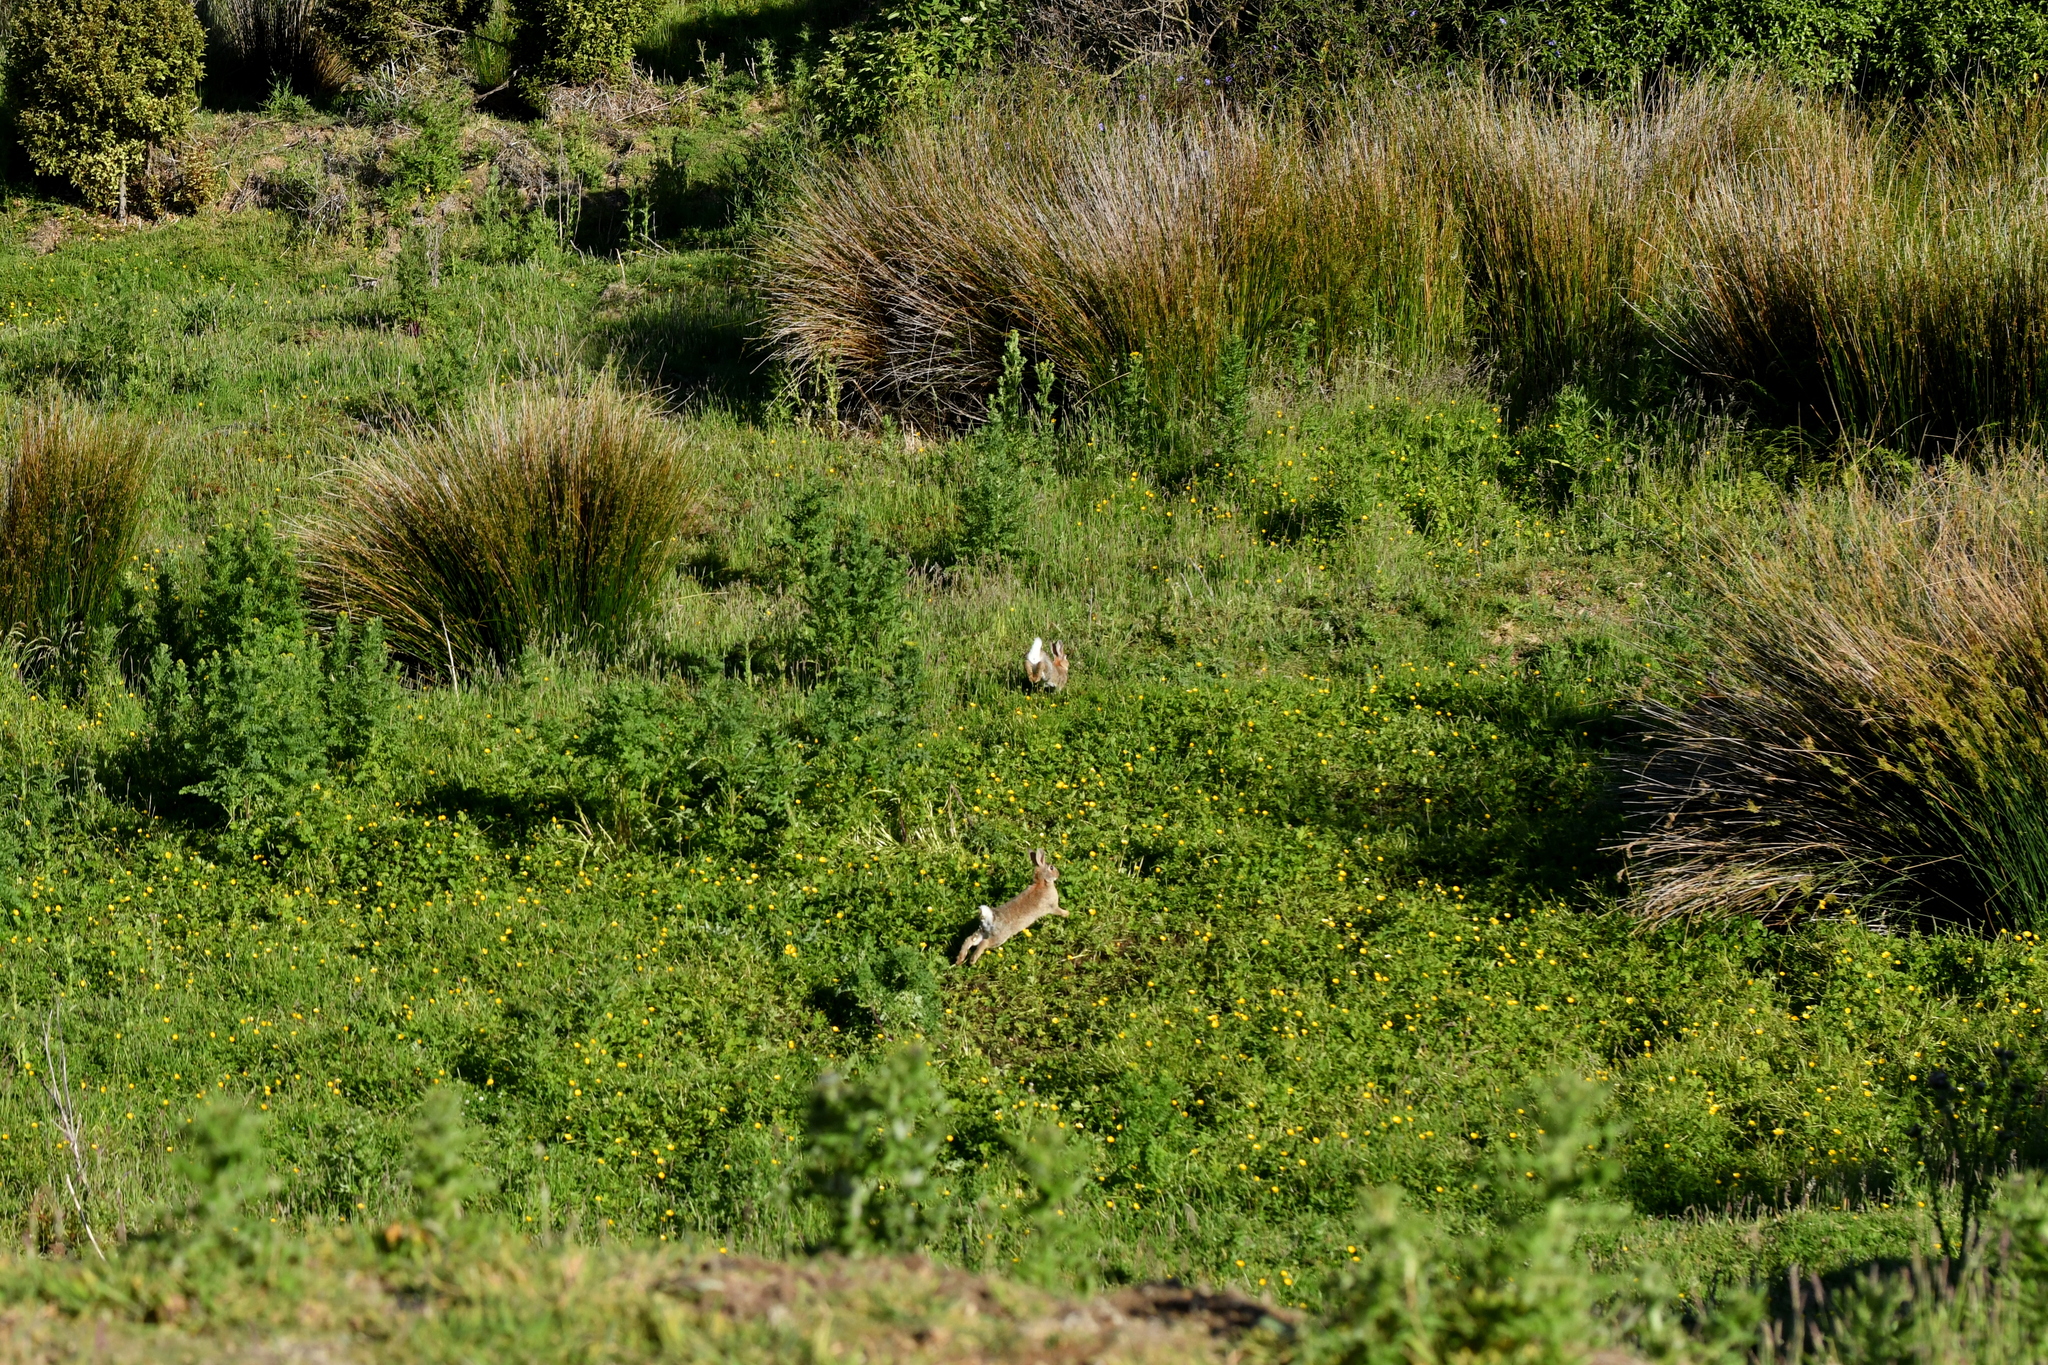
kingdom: Animalia
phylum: Chordata
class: Mammalia
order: Lagomorpha
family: Leporidae
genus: Oryctolagus
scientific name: Oryctolagus cuniculus
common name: European rabbit
